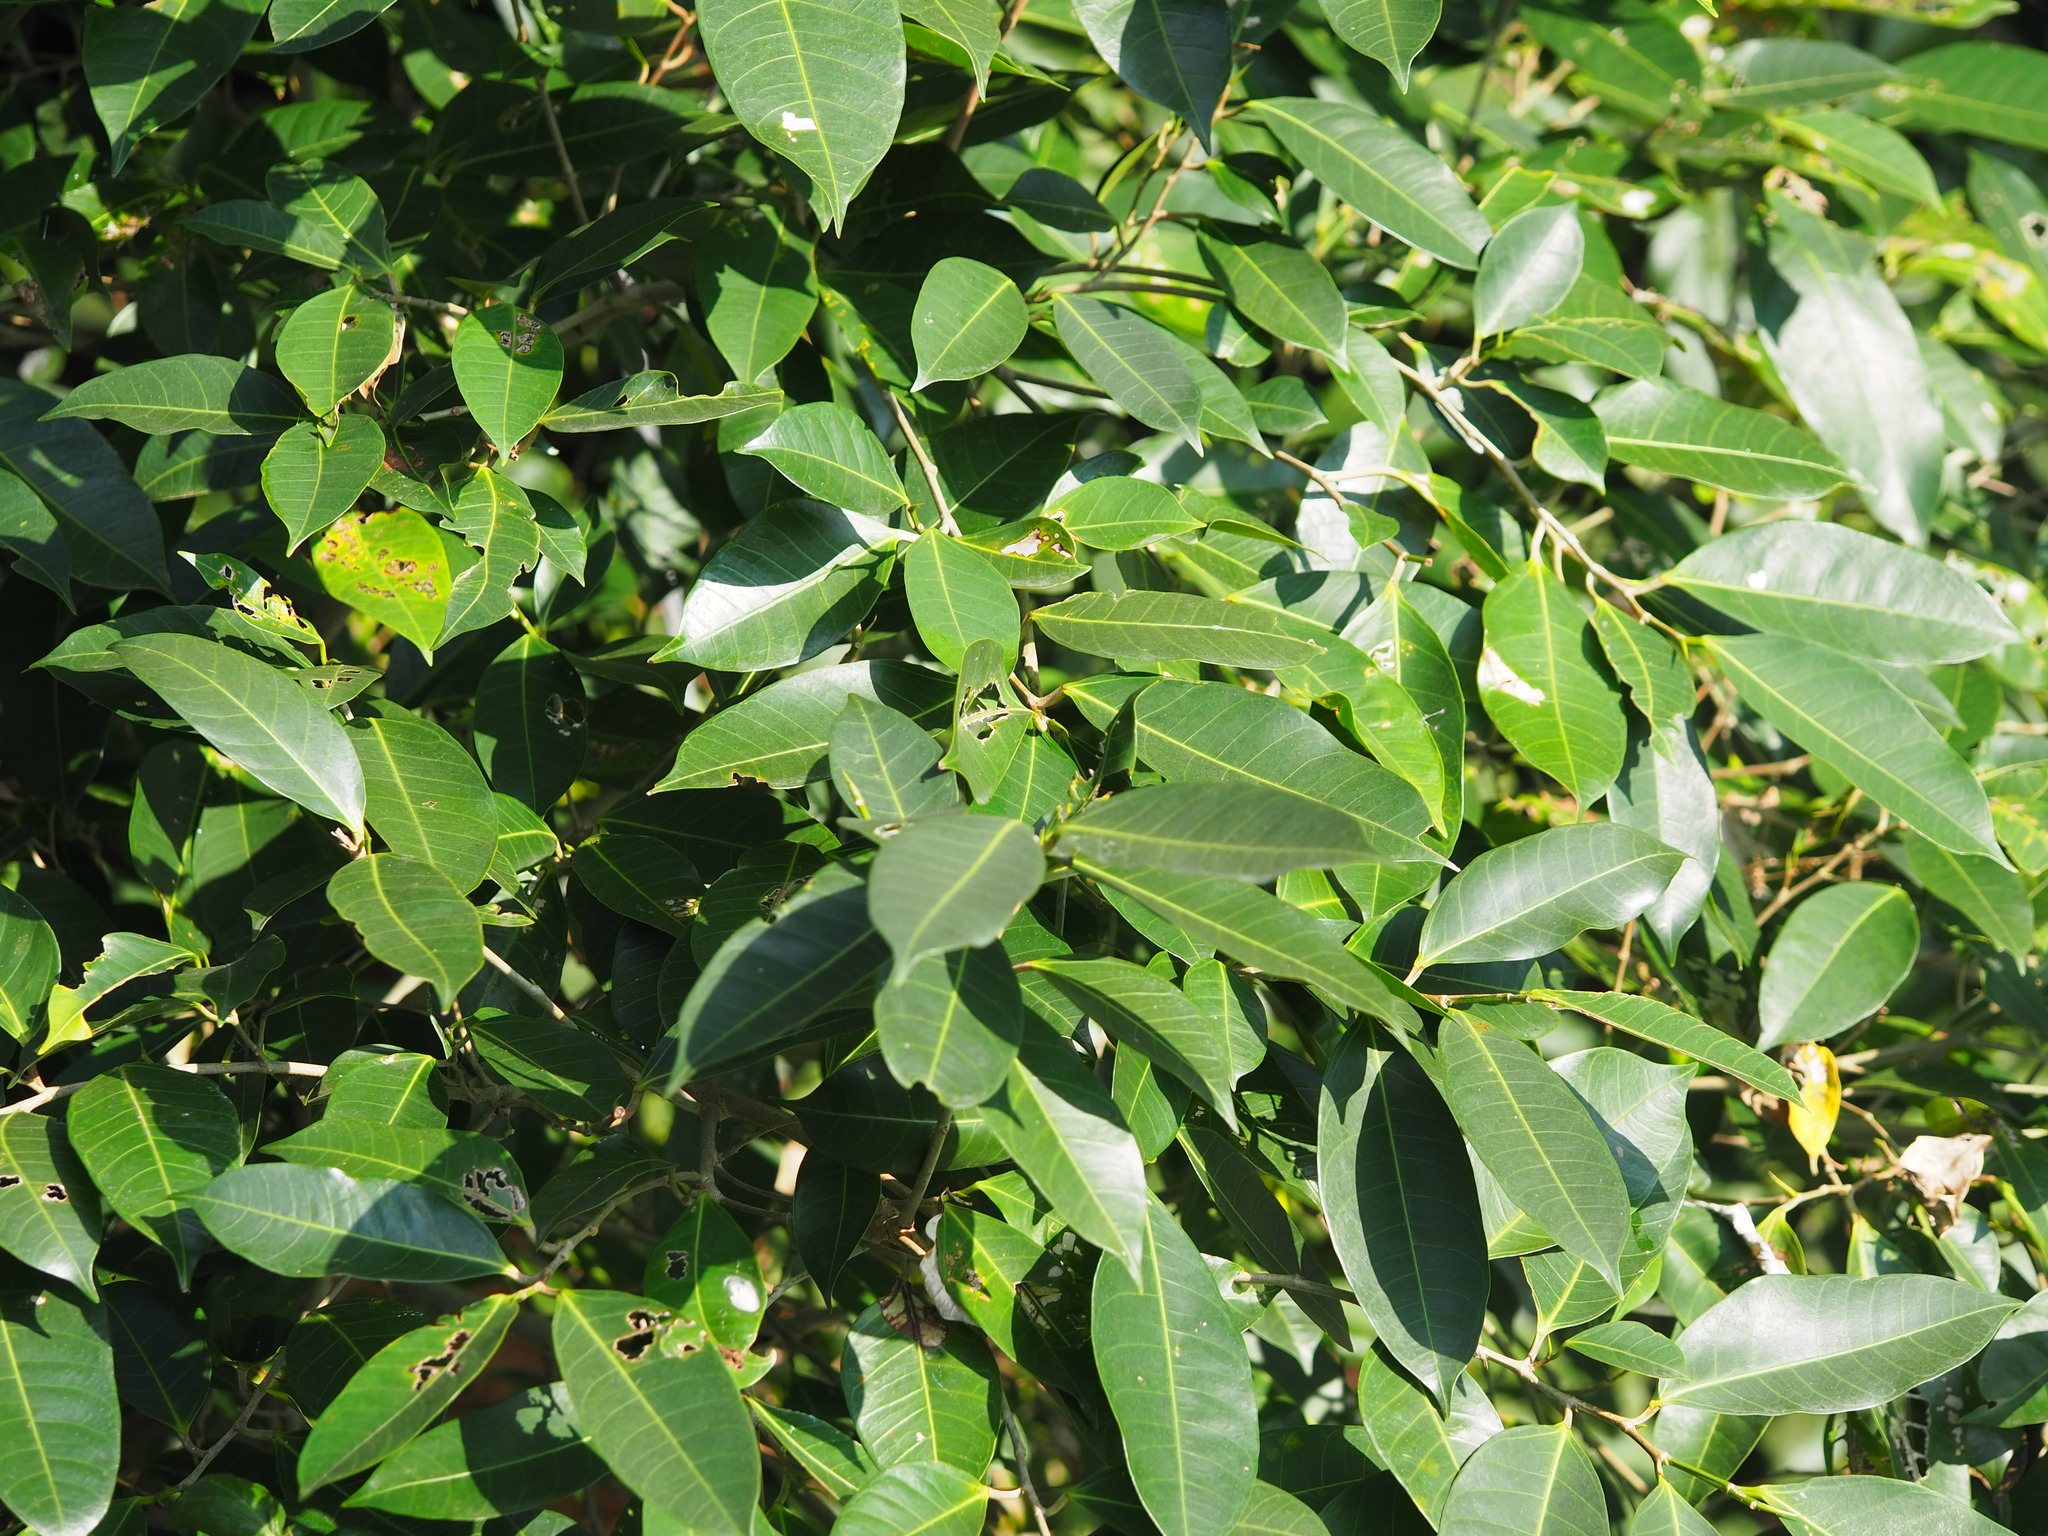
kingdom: Plantae
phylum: Tracheophyta
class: Magnoliopsida
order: Rosales
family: Moraceae
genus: Ficus
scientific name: Ficus virgata
